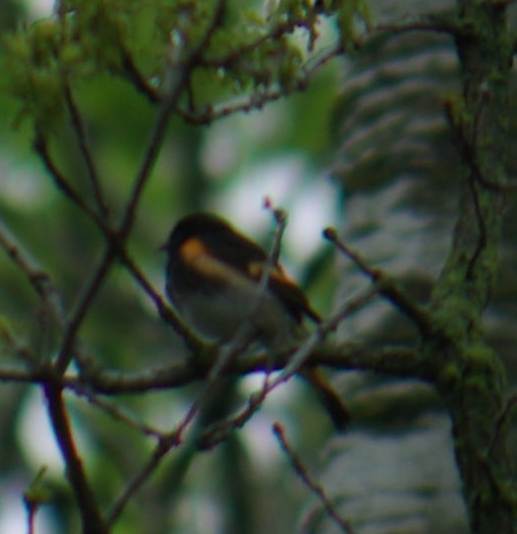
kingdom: Animalia
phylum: Chordata
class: Aves
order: Passeriformes
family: Parulidae
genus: Setophaga
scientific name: Setophaga ruticilla
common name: American redstart
